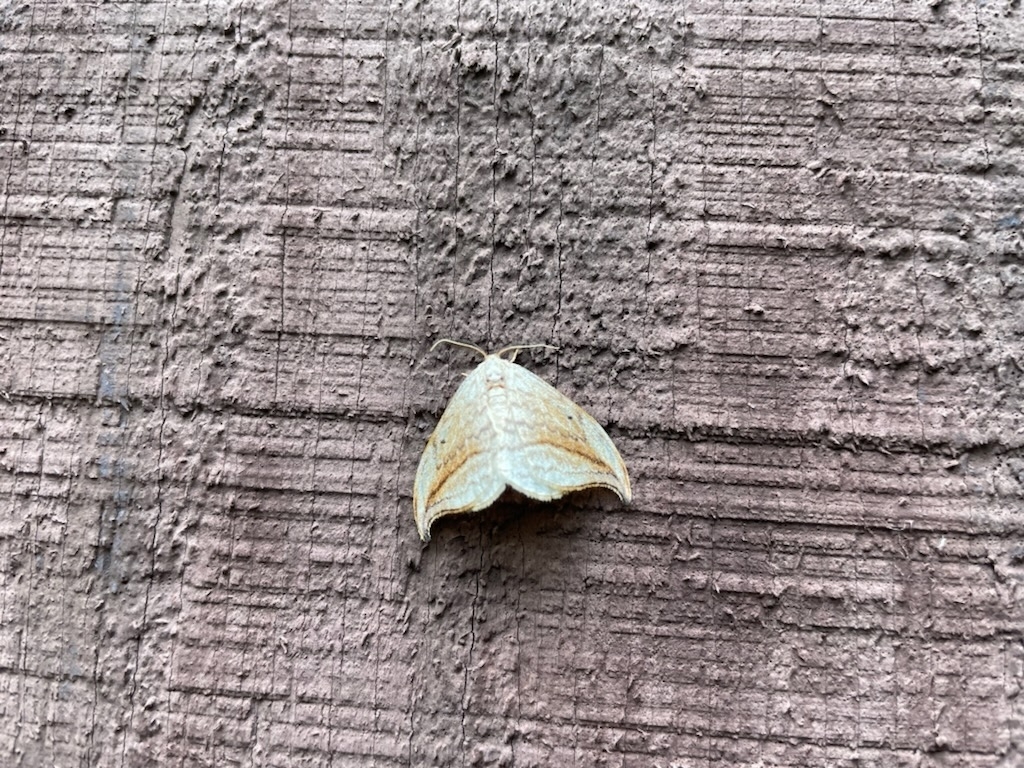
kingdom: Animalia
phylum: Arthropoda
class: Insecta
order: Lepidoptera
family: Drepanidae
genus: Drepana
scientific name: Drepana arcuata
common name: Arched hooktip moth
